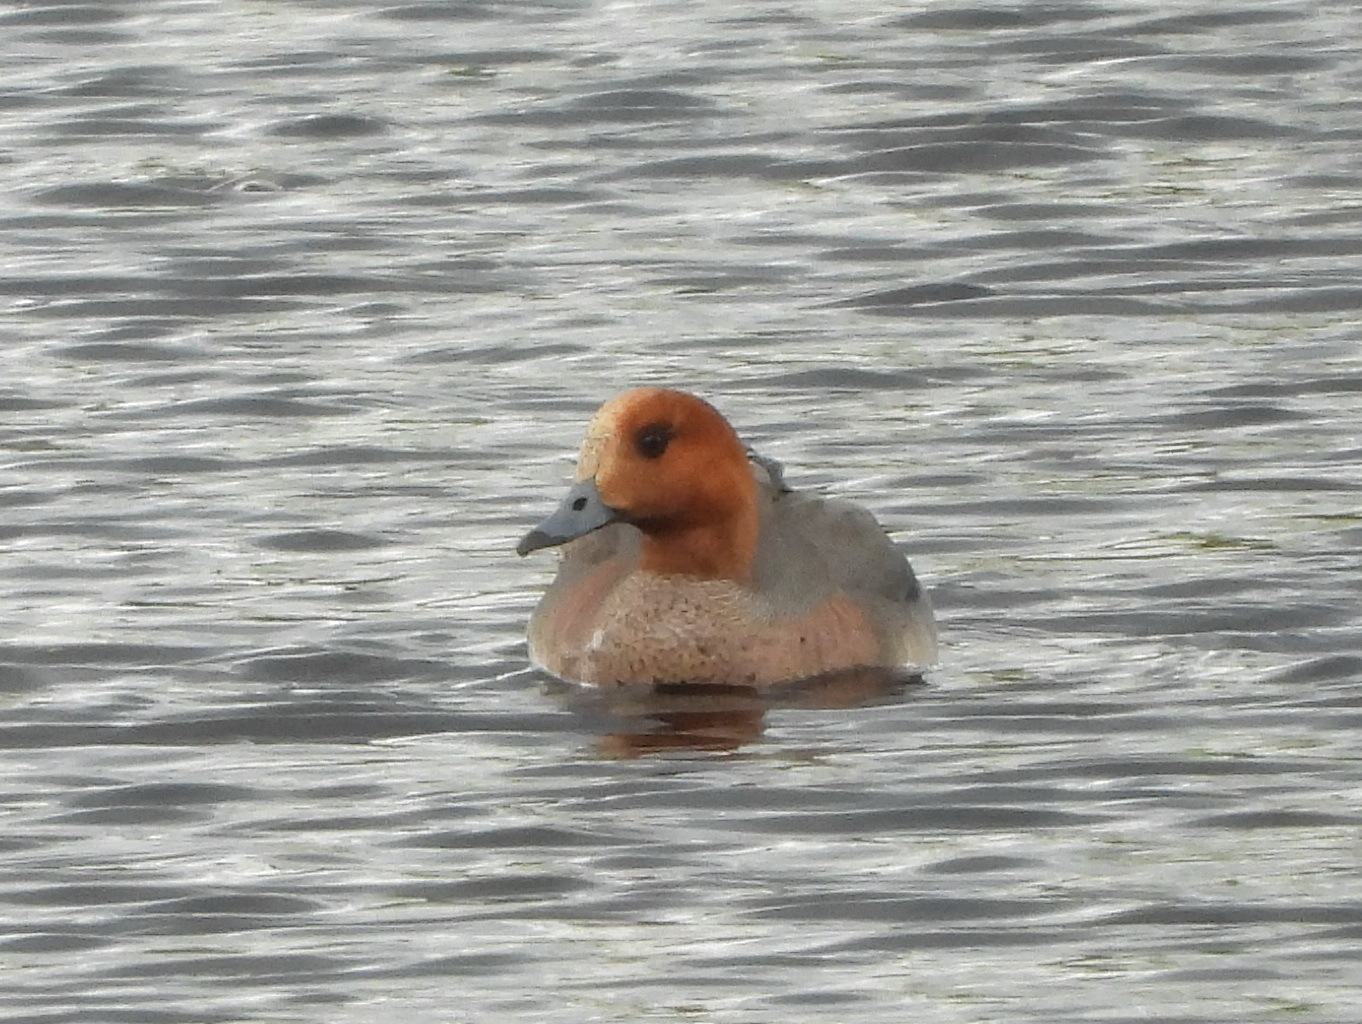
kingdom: Animalia
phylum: Chordata
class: Aves
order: Anseriformes
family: Anatidae
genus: Mareca
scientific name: Mareca penelope
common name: Eurasian wigeon
